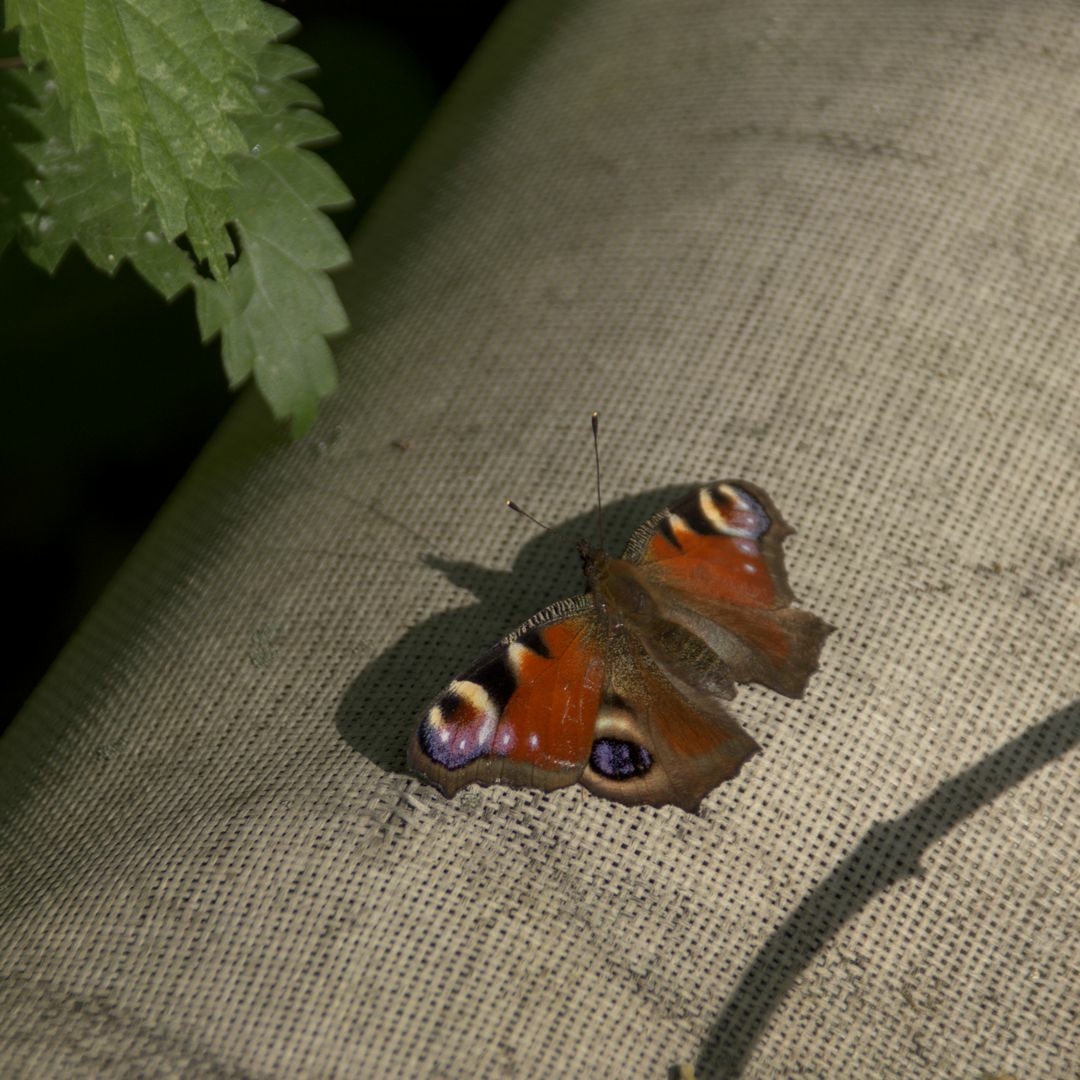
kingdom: Animalia
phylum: Arthropoda
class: Insecta
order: Lepidoptera
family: Nymphalidae
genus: Aglais
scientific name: Aglais io
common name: Peacock
